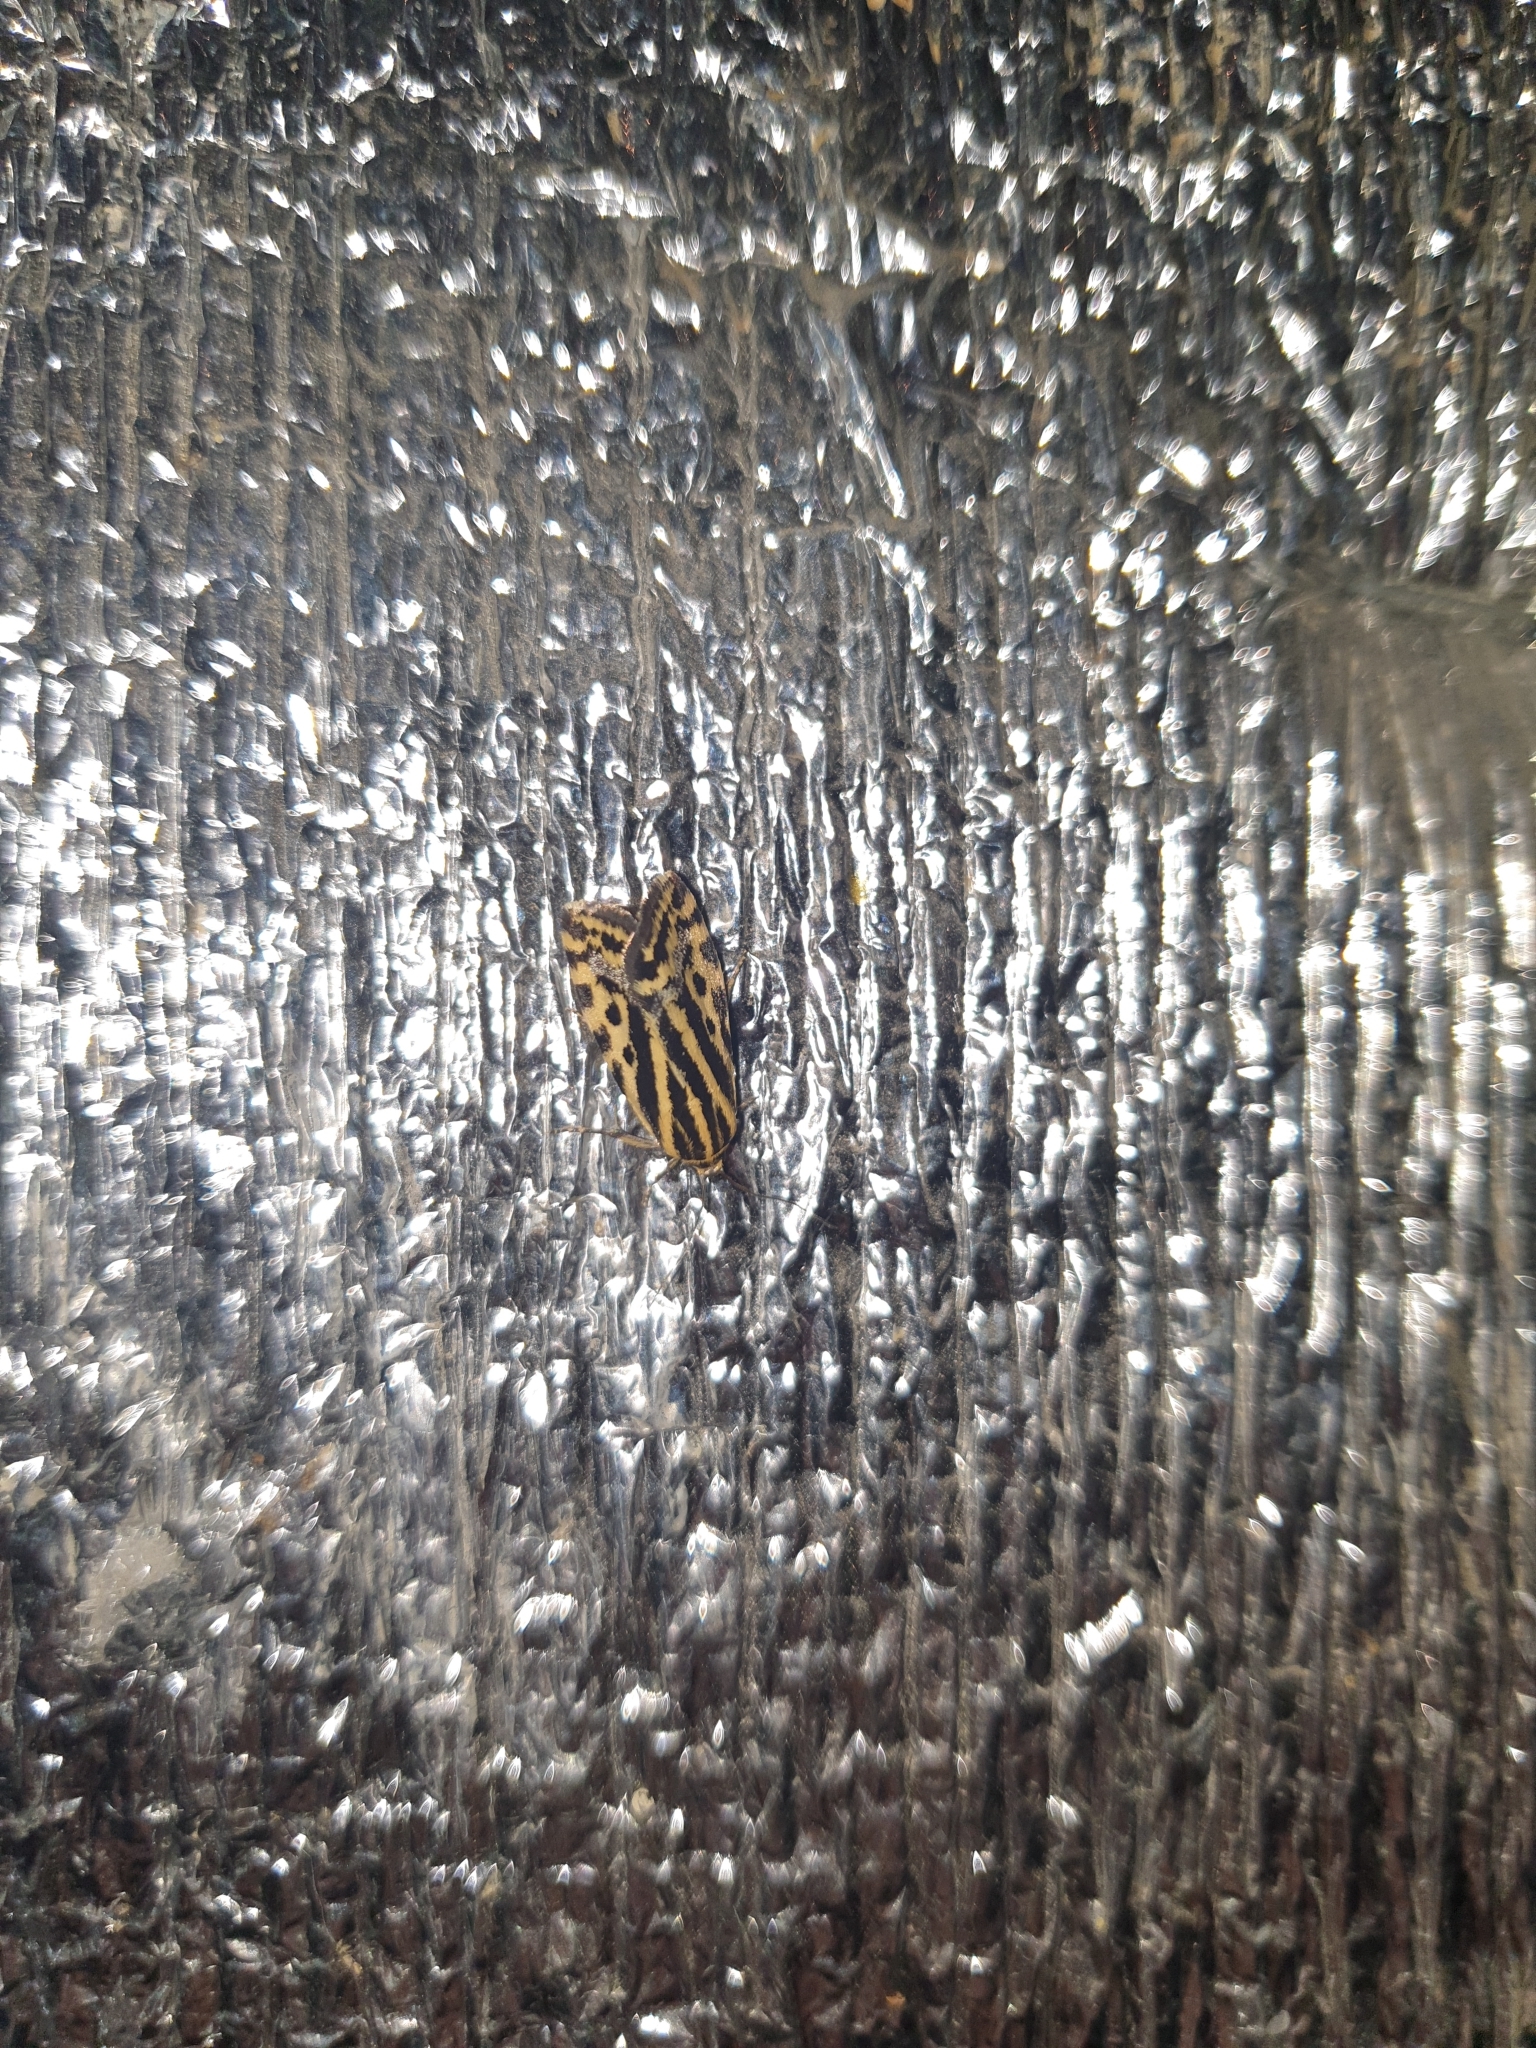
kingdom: Animalia
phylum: Arthropoda
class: Insecta
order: Lepidoptera
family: Noctuidae
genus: Acontia
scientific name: Acontia trabealis
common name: Spotted sulphur
